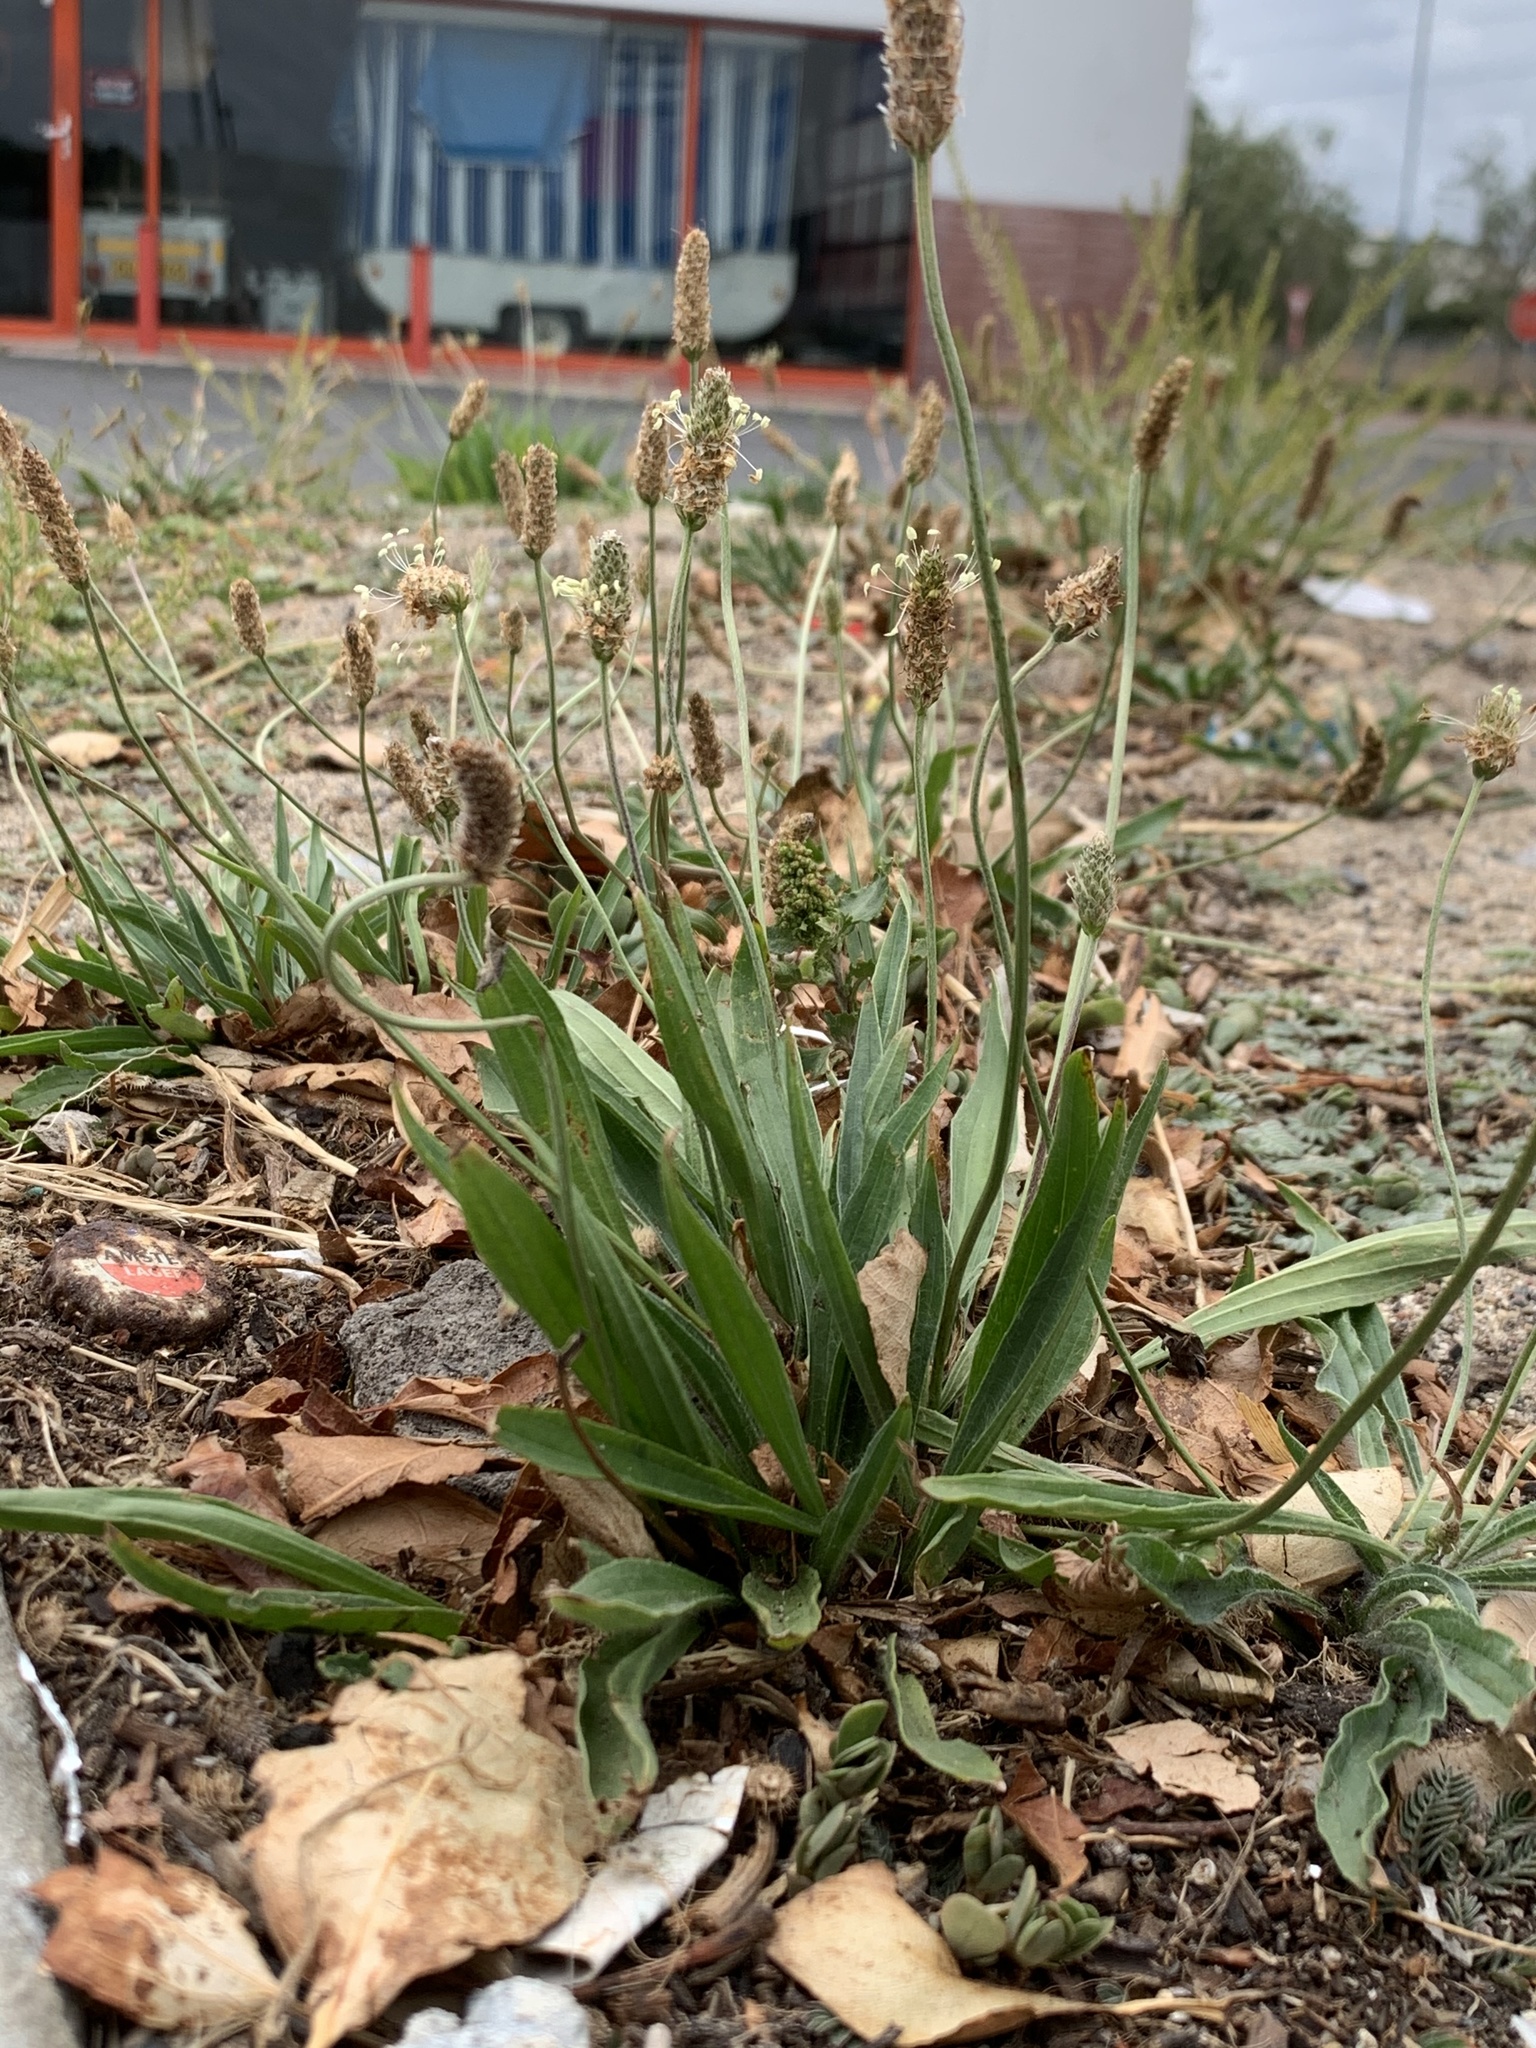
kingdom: Plantae
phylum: Tracheophyta
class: Magnoliopsida
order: Lamiales
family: Plantaginaceae
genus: Plantago
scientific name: Plantago lanceolata
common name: Ribwort plantain
